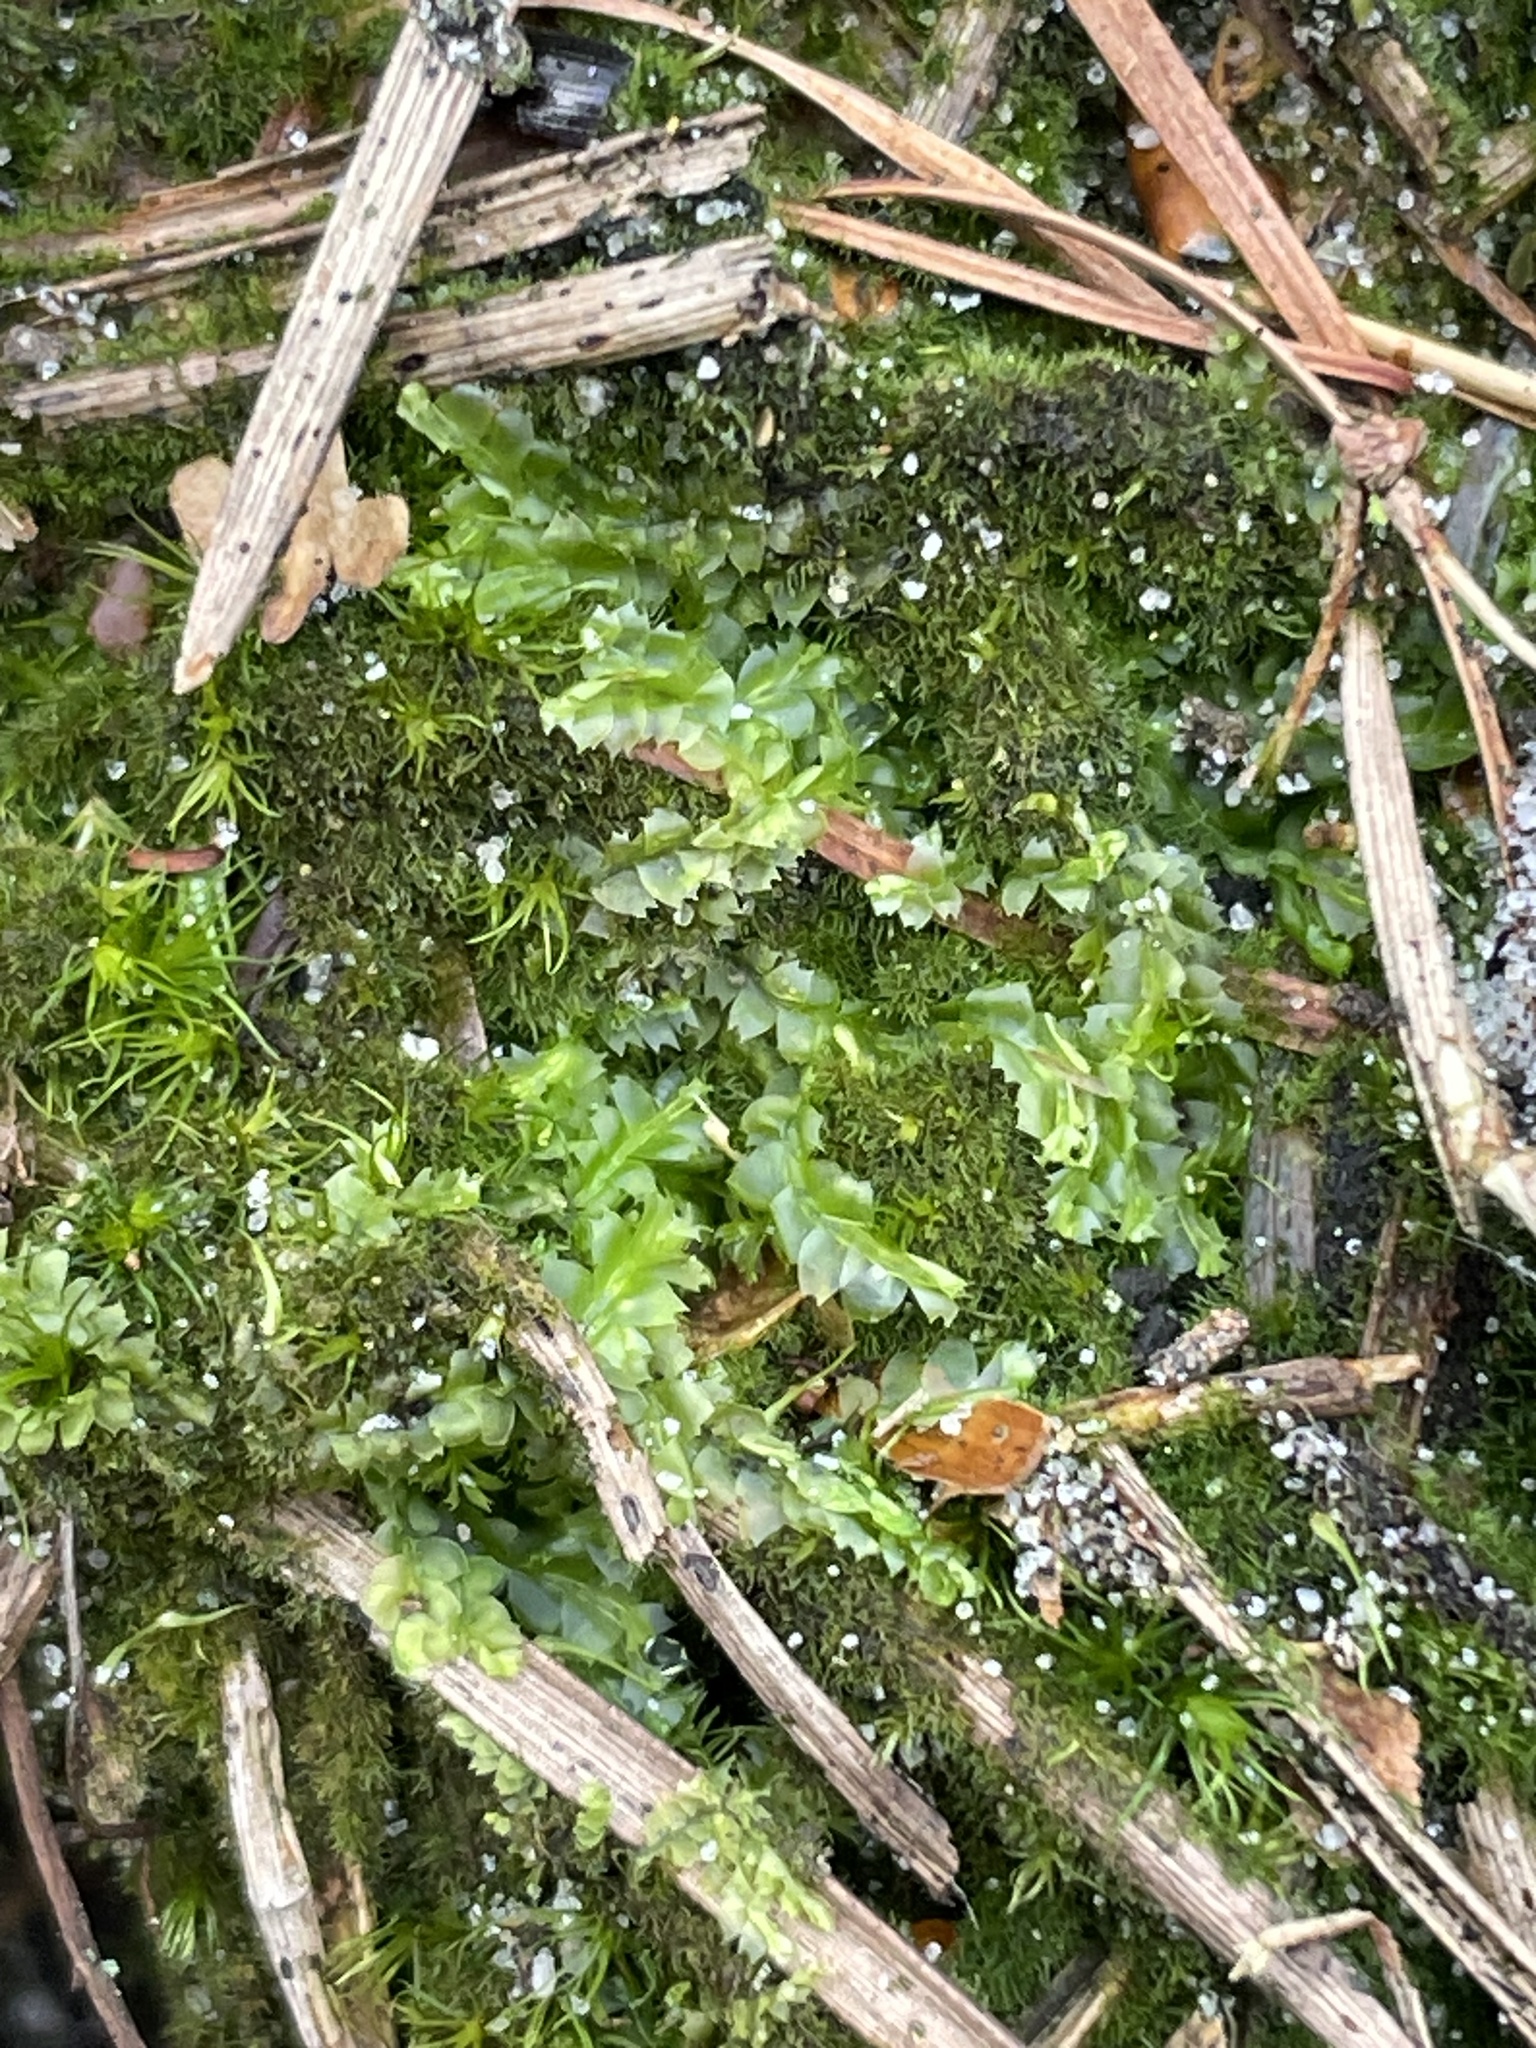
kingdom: Plantae
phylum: Marchantiophyta
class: Jungermanniopsida
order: Jungermanniales
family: Lophocoleaceae
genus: Lophocolea
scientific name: Lophocolea heterophylla
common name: Variable-leaved crestwort
